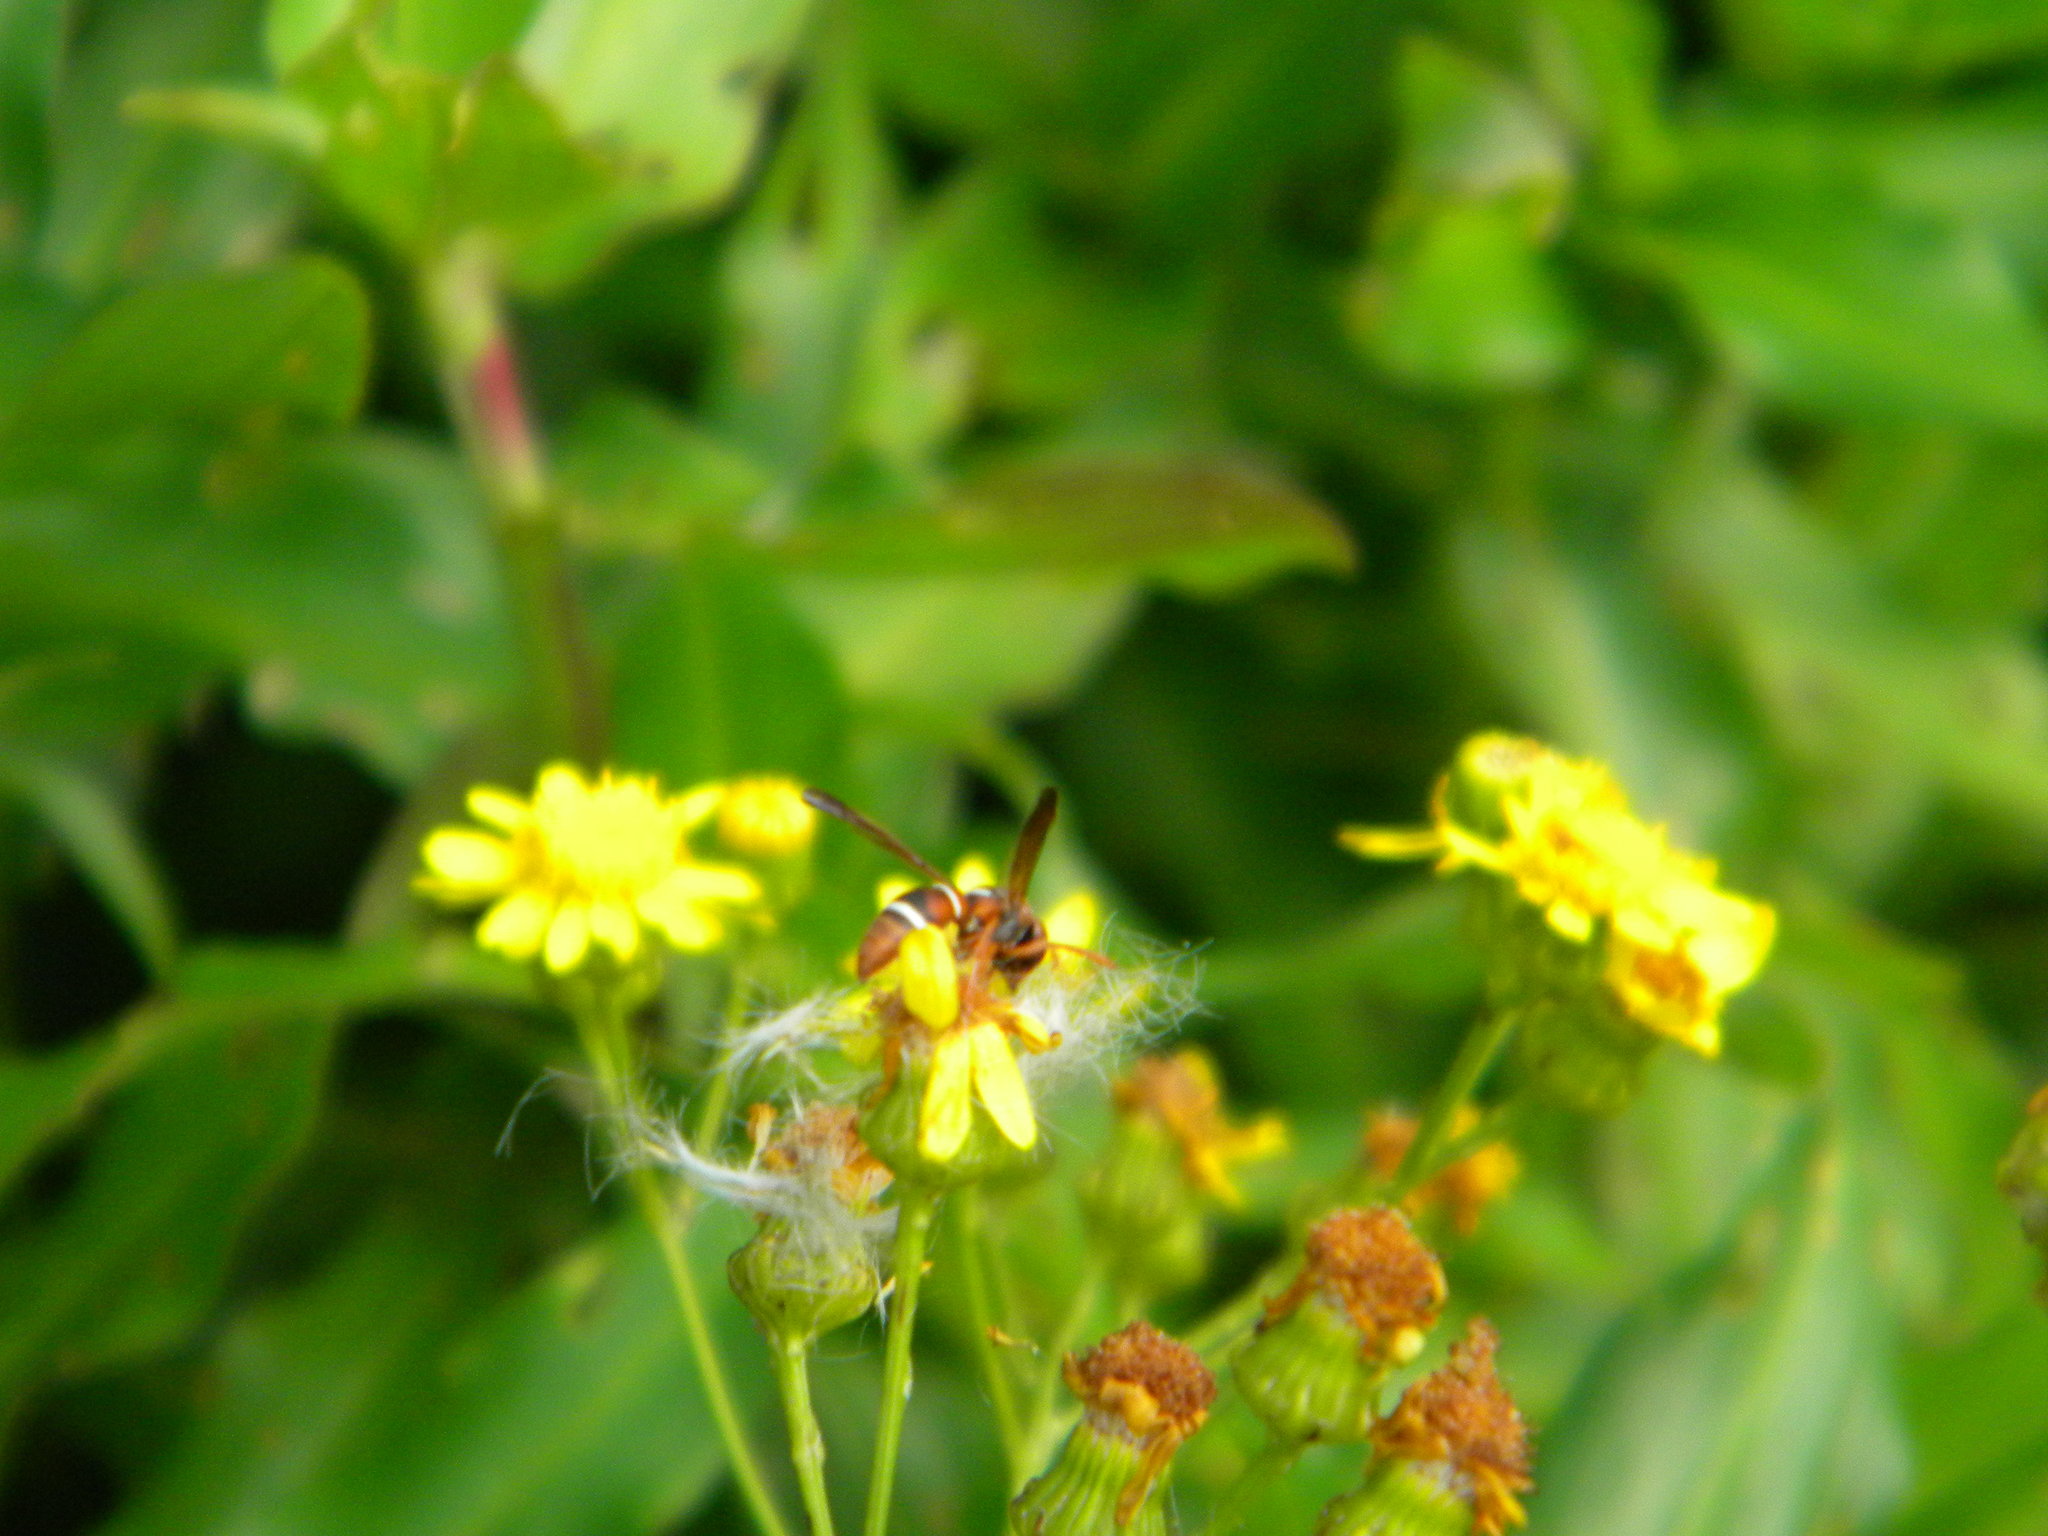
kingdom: Animalia
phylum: Arthropoda
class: Insecta
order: Hymenoptera
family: Eumenidae
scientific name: Eumenidae
